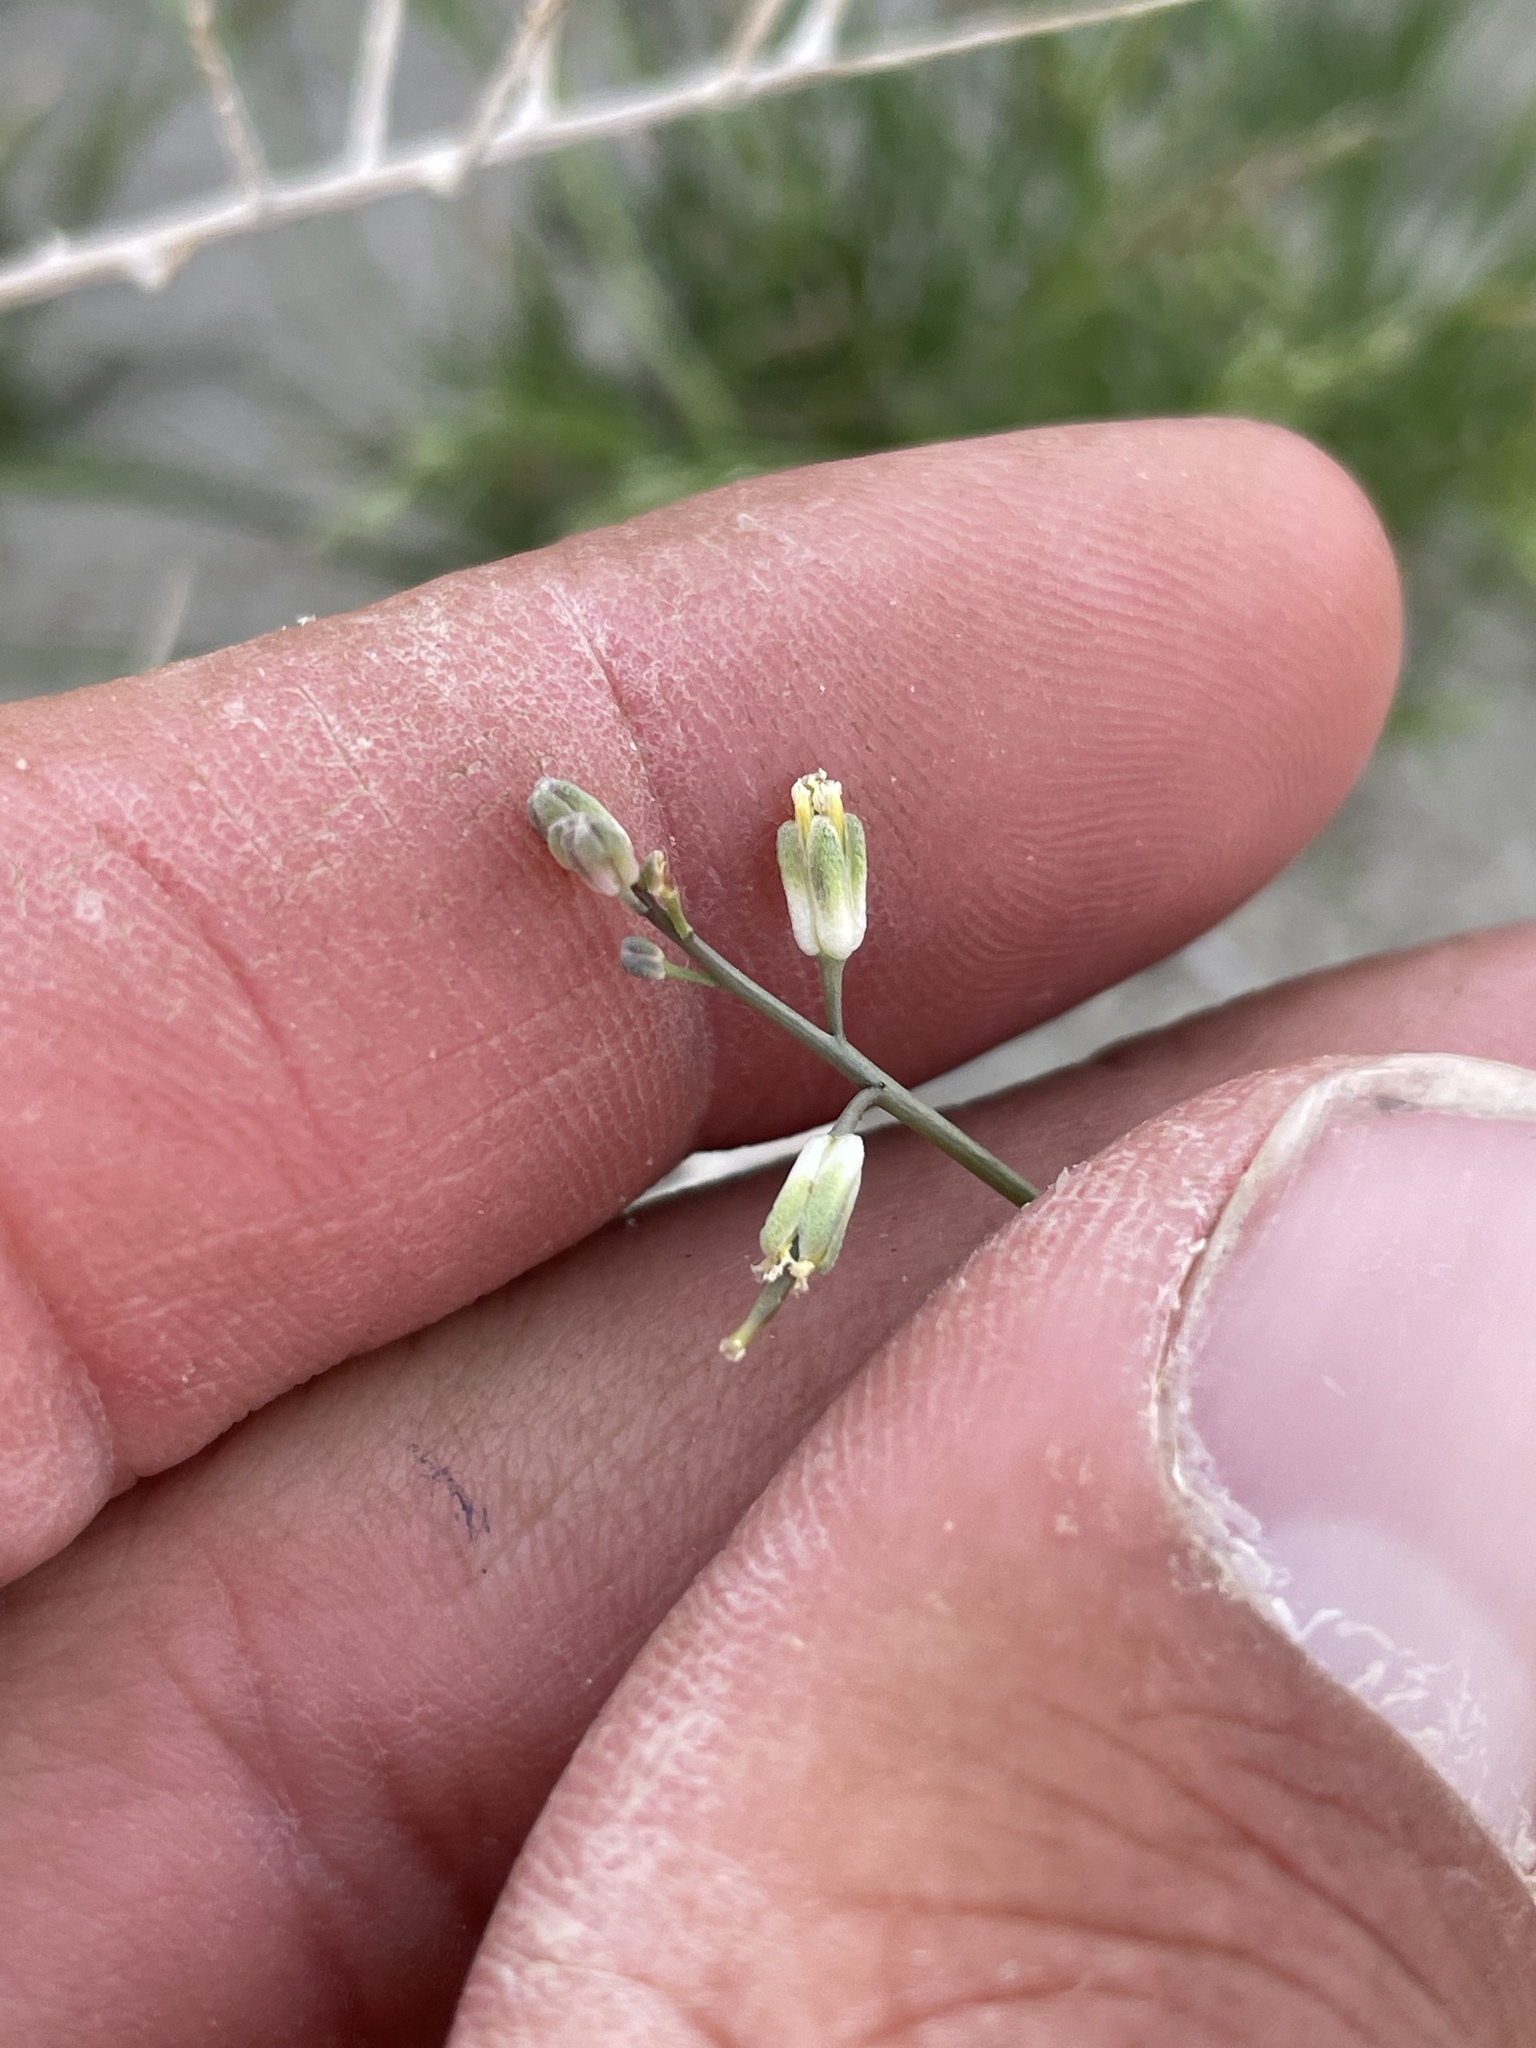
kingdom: Plantae
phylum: Tracheophyta
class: Magnoliopsida
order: Brassicales
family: Brassicaceae
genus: Streptanthus
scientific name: Streptanthus longirostris
